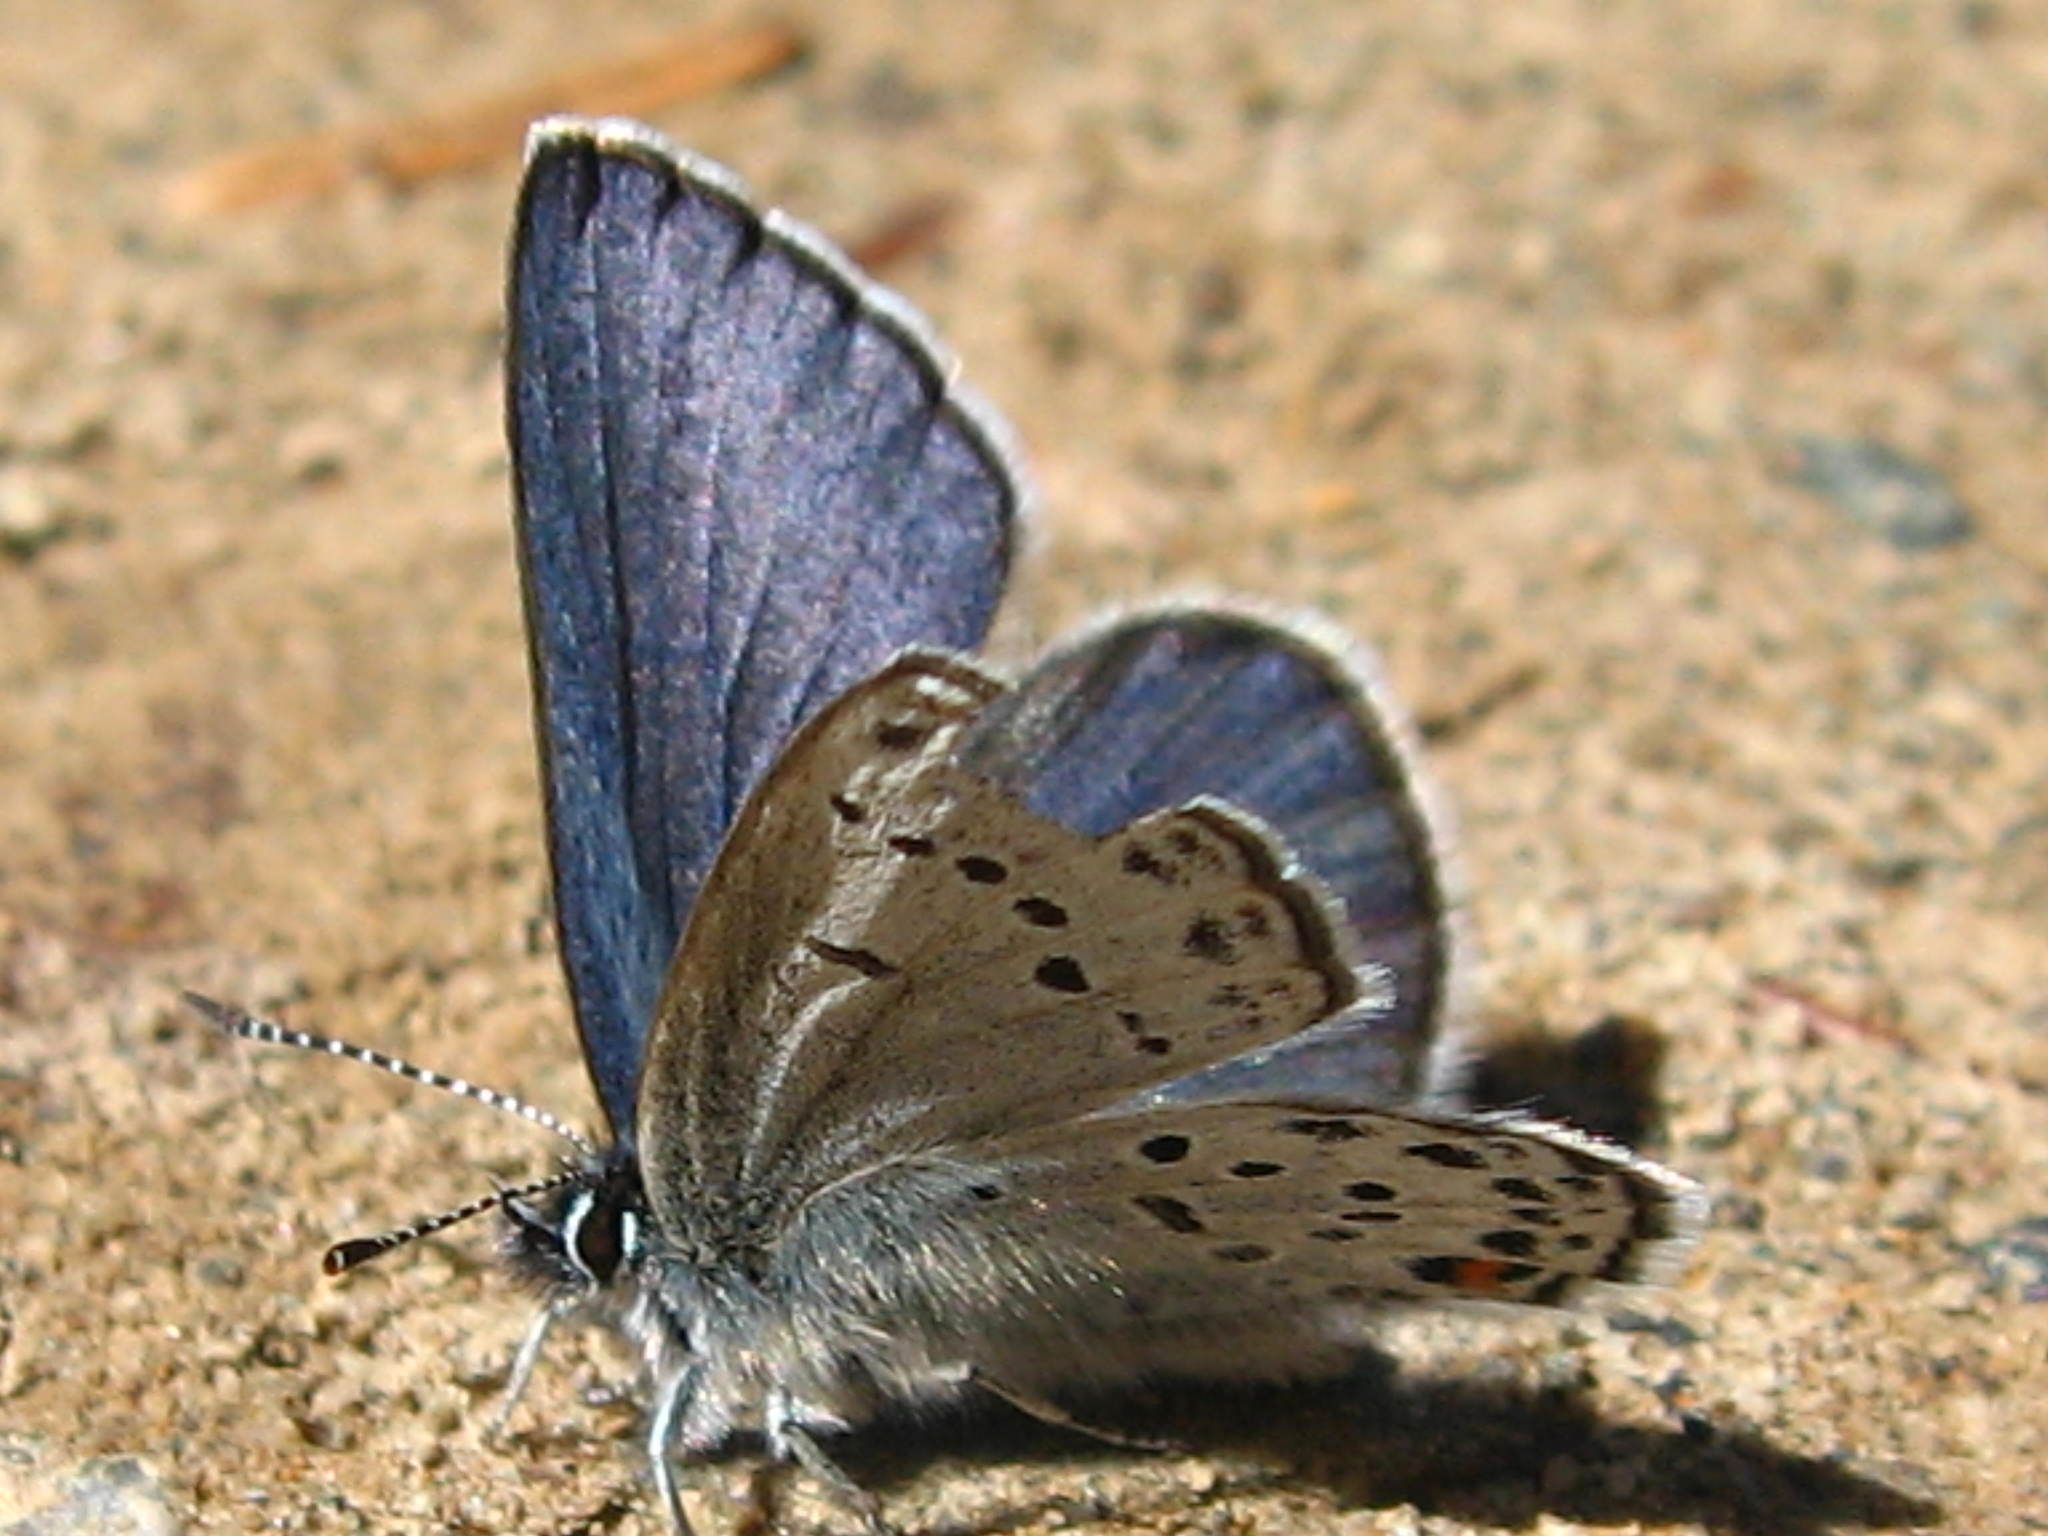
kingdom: Animalia
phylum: Arthropoda
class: Insecta
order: Lepidoptera
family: Lycaenidae
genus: Vacciniina
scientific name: Vacciniina optilete
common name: Cranberry blue
